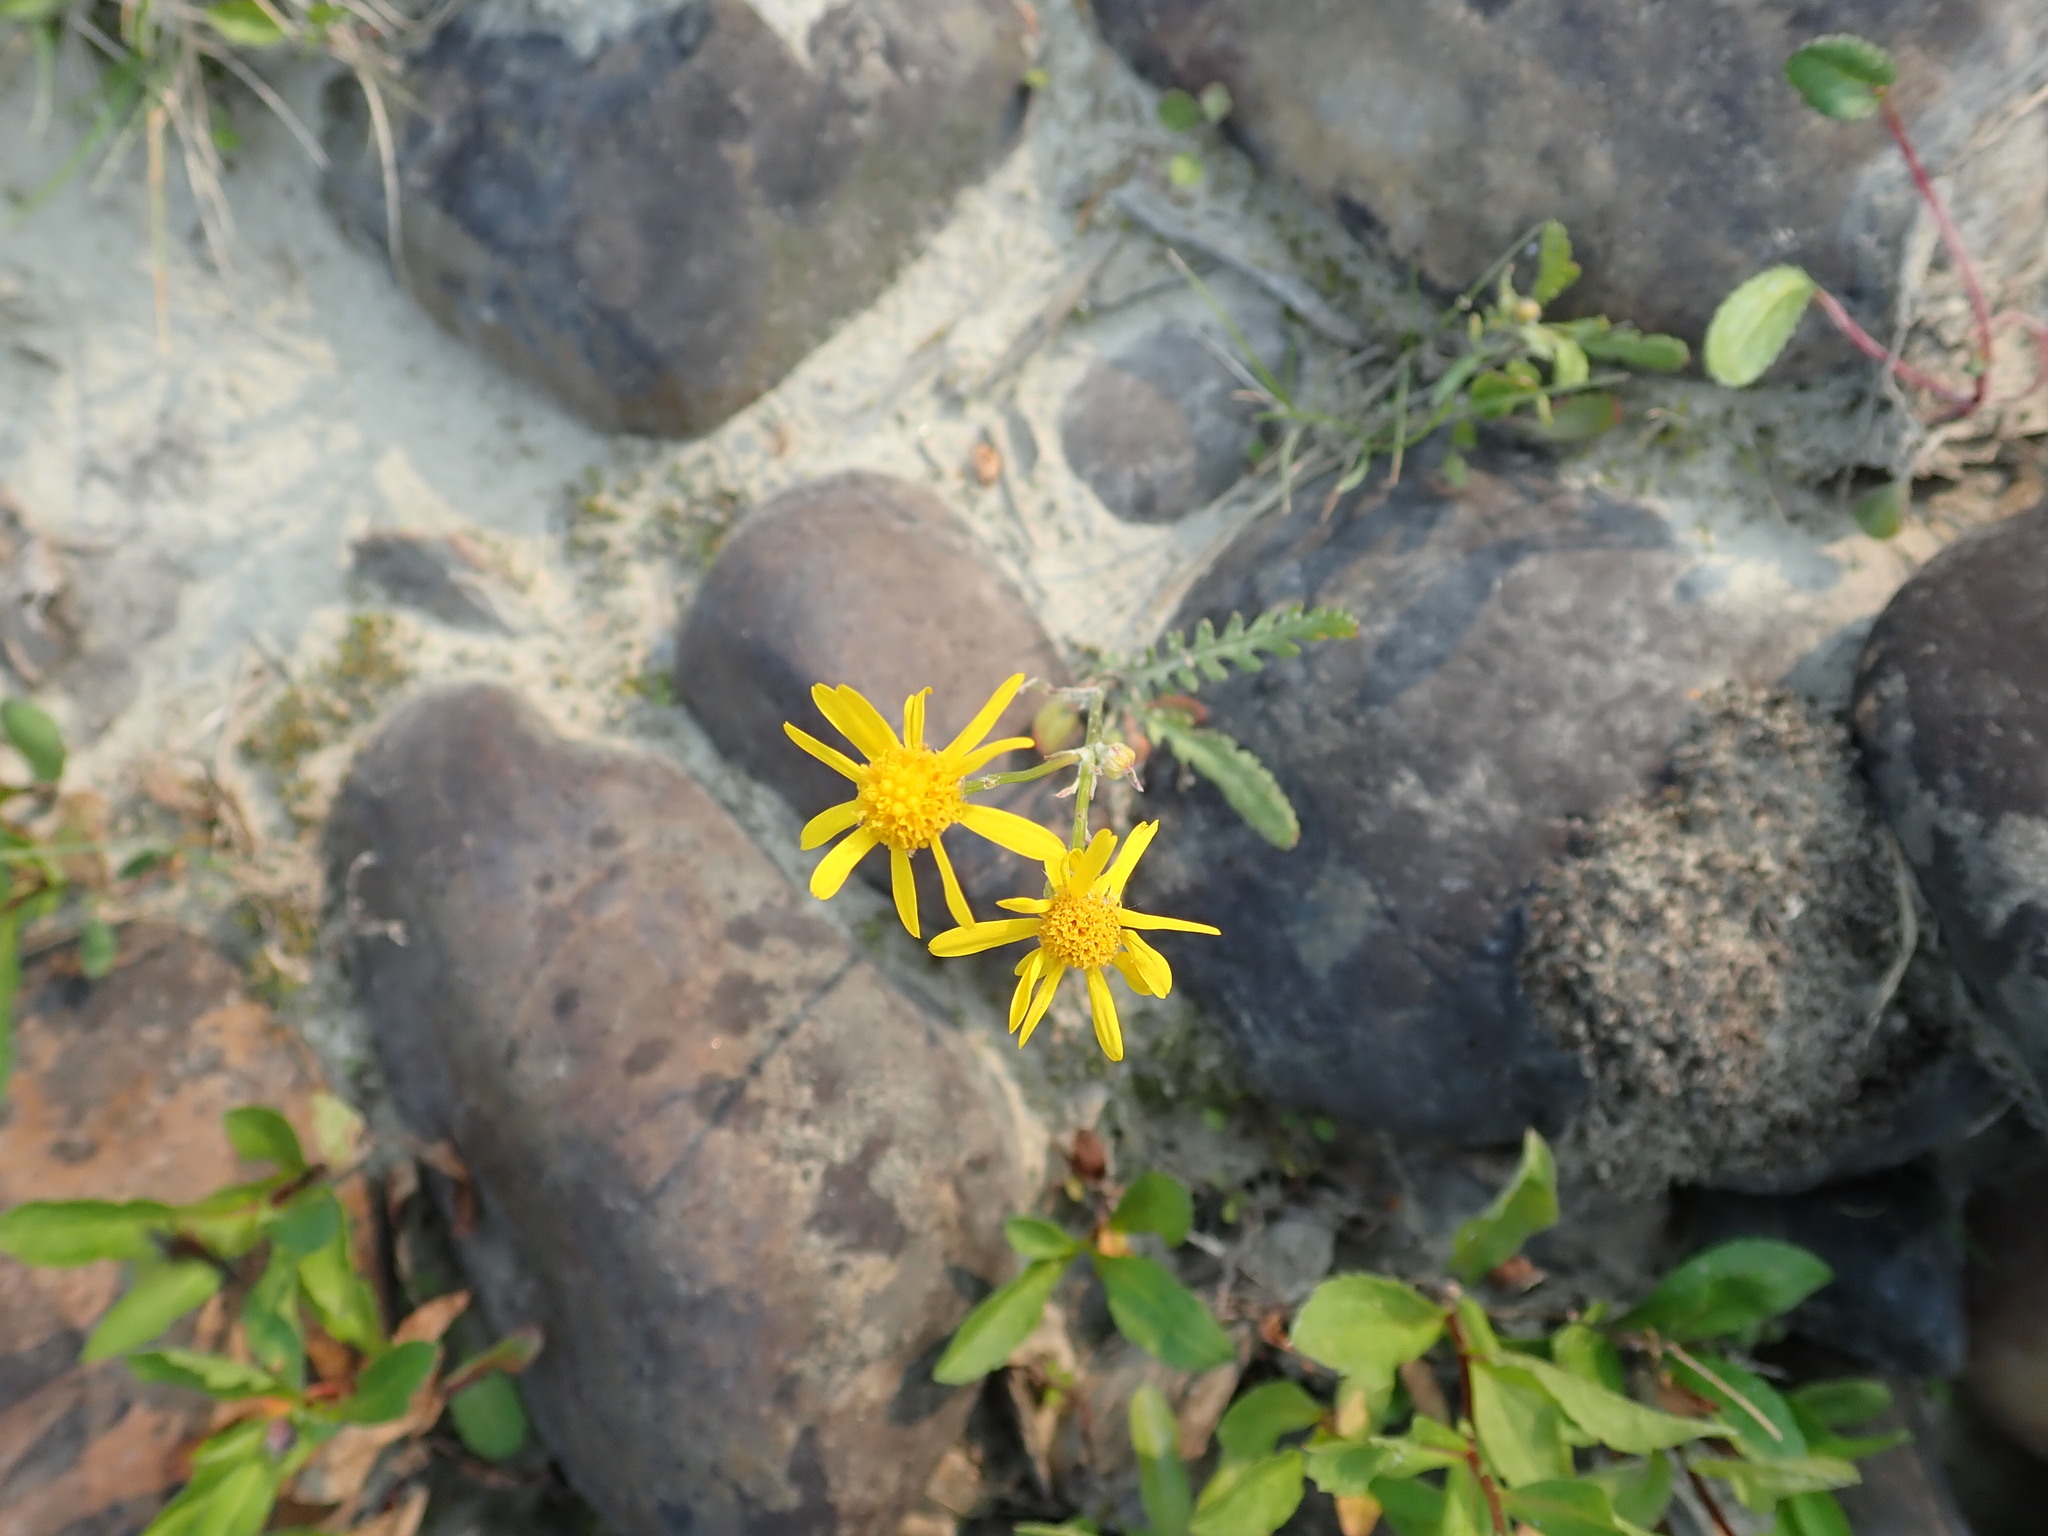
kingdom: Plantae
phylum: Tracheophyta
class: Magnoliopsida
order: Asterales
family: Asteraceae
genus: Packera
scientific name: Packera indecora
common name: Elegant groundsel
